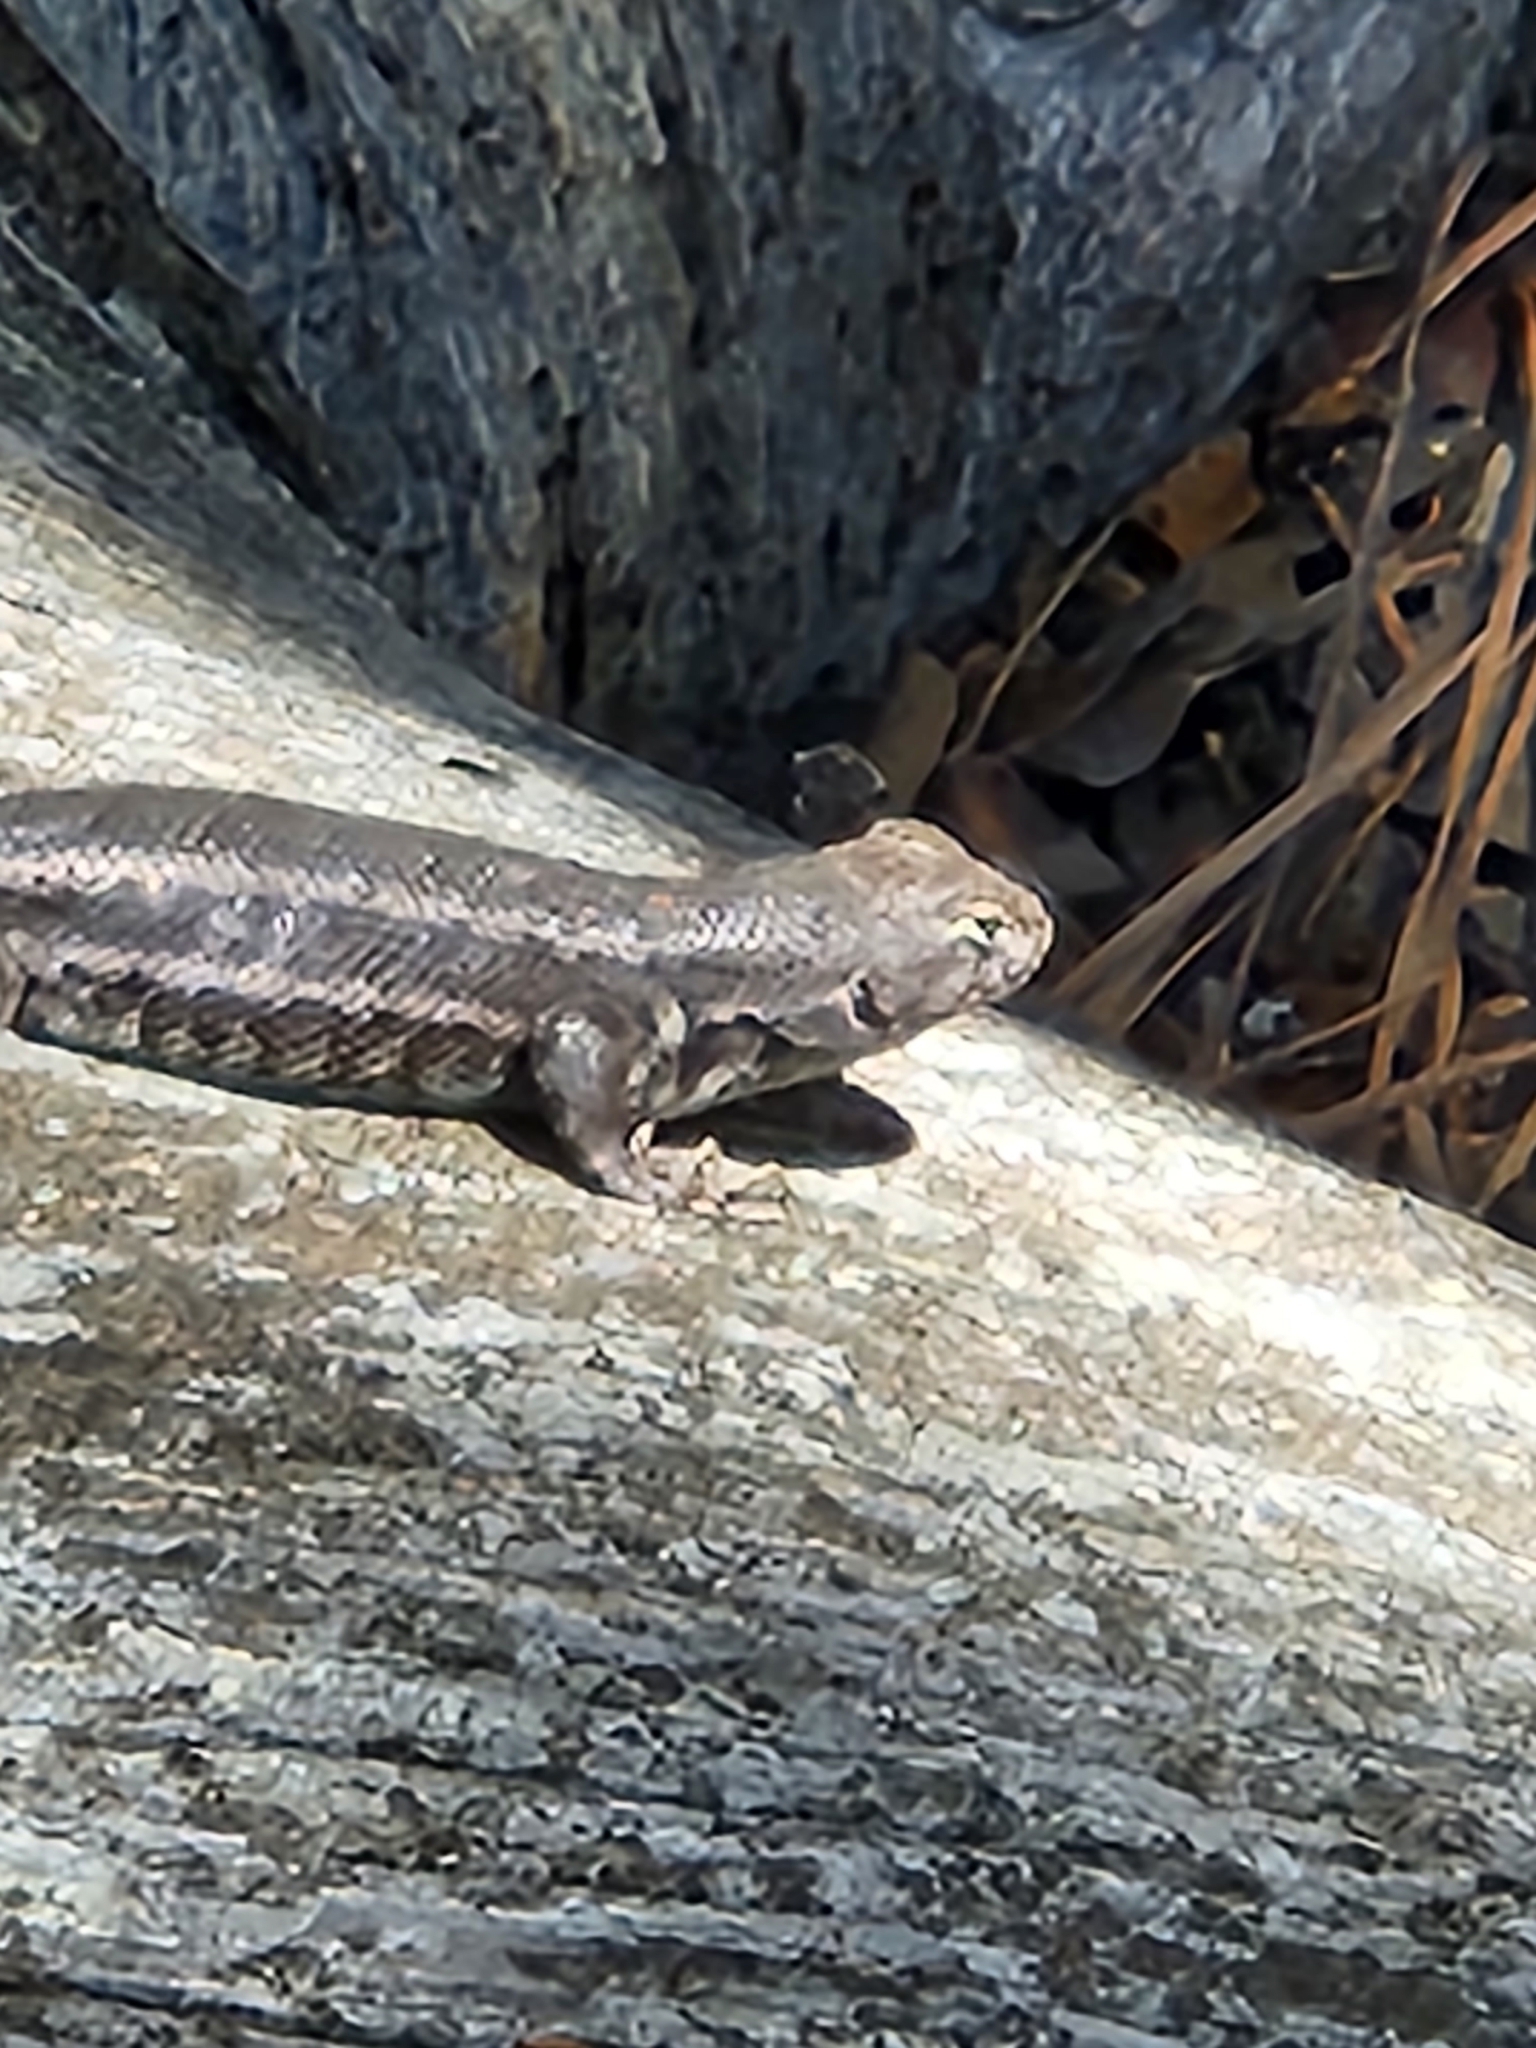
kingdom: Animalia
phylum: Chordata
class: Squamata
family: Phrynosomatidae
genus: Sceloporus
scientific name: Sceloporus graciosus
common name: Sagebrush lizard
